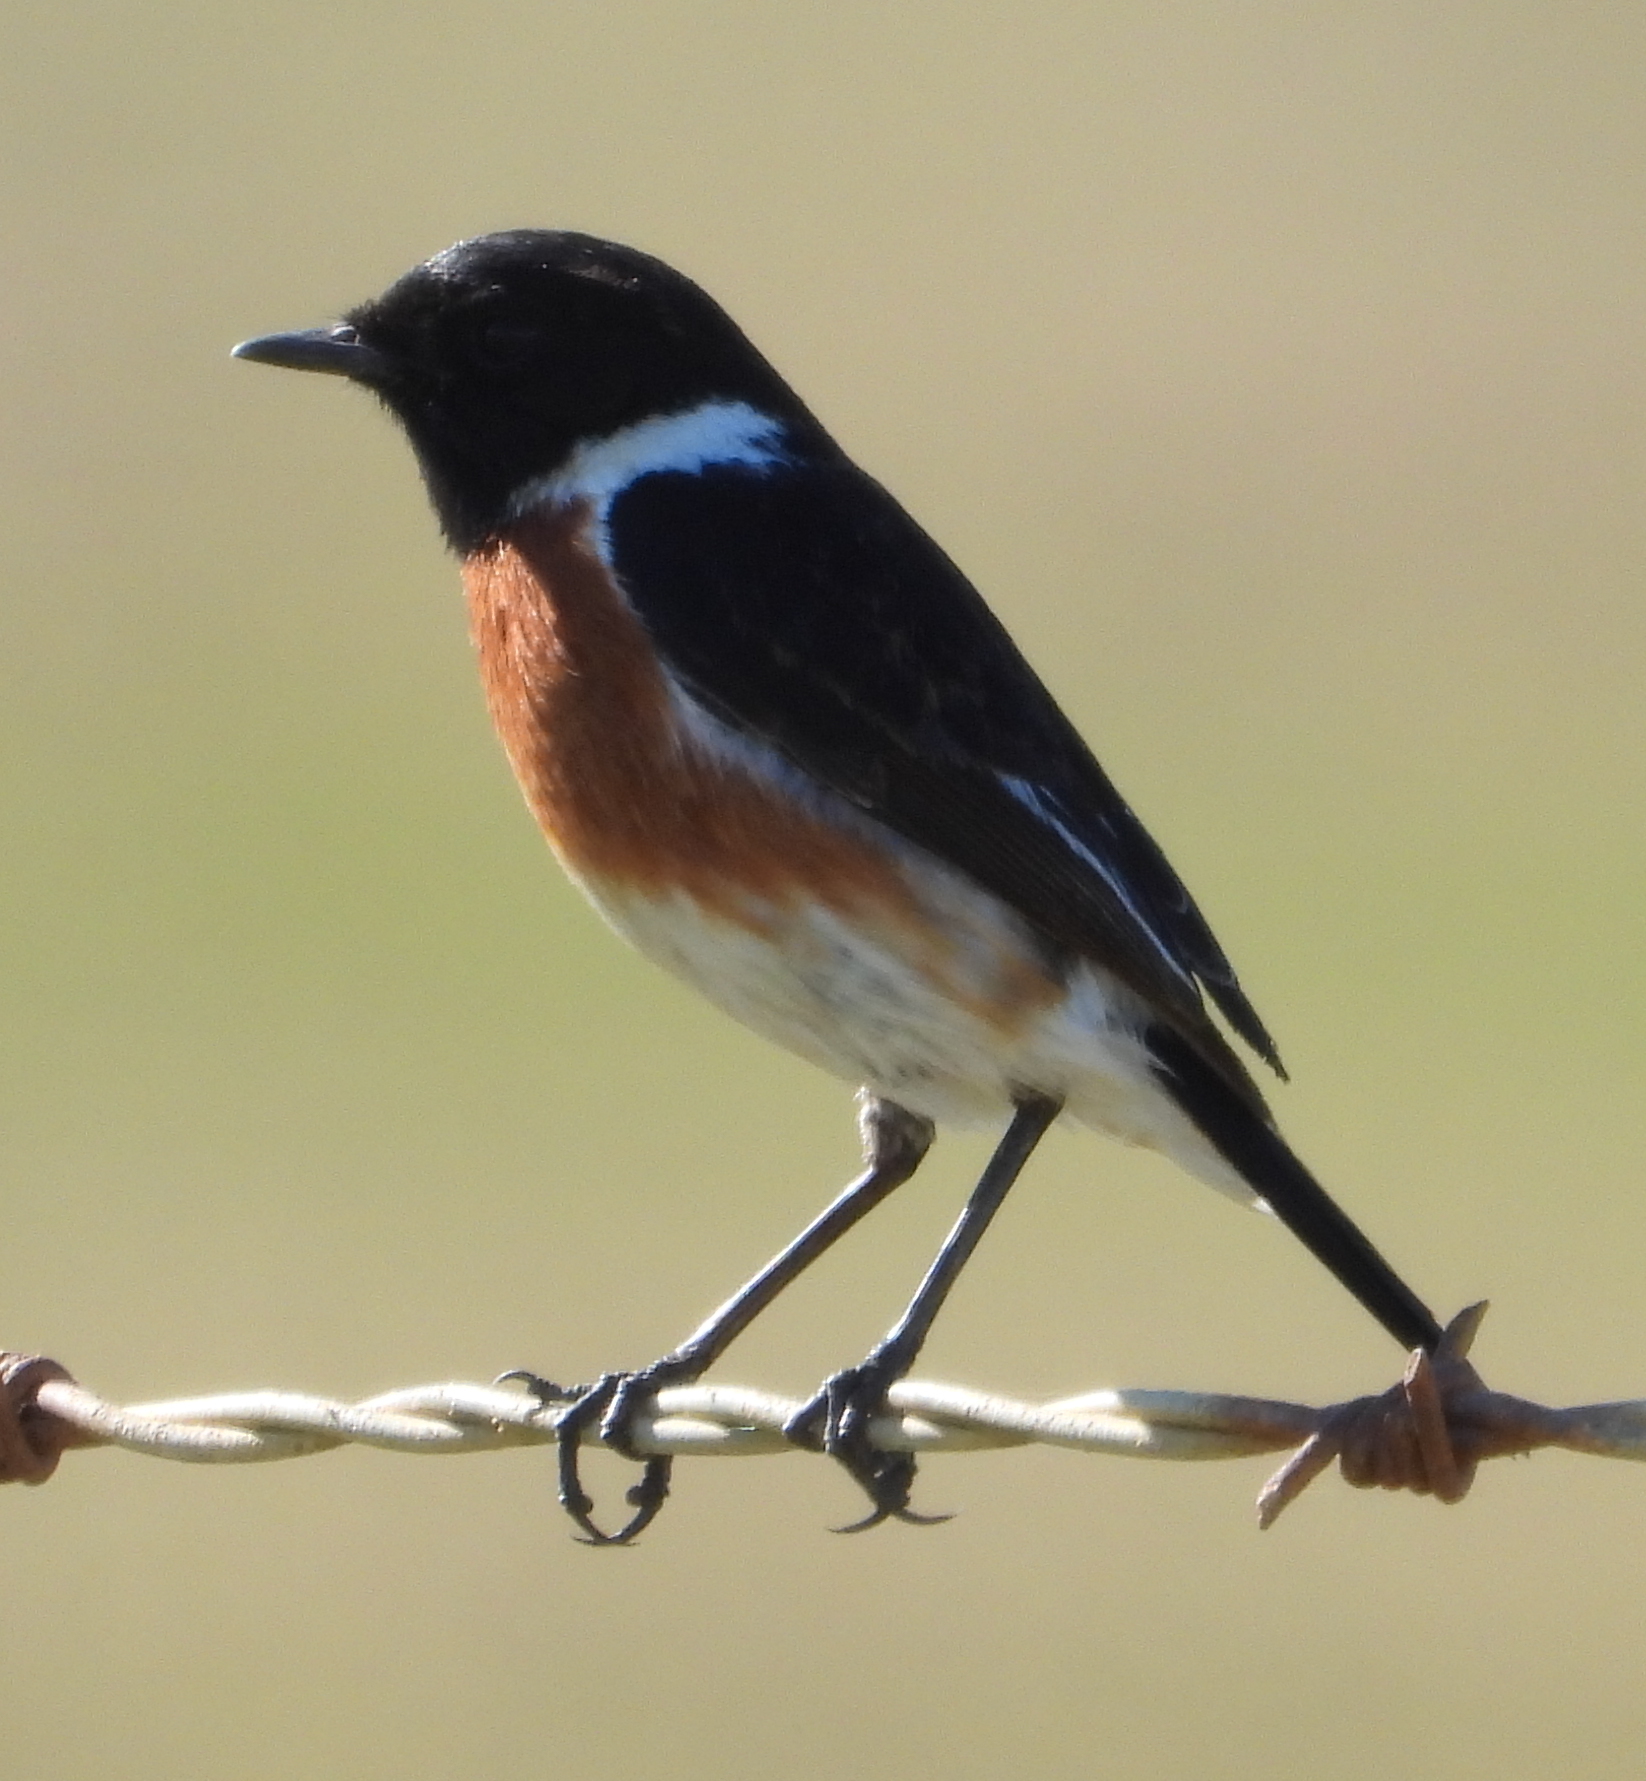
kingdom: Animalia
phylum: Chordata
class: Aves
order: Passeriformes
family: Muscicapidae
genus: Saxicola
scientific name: Saxicola torquatus
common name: African stonechat
